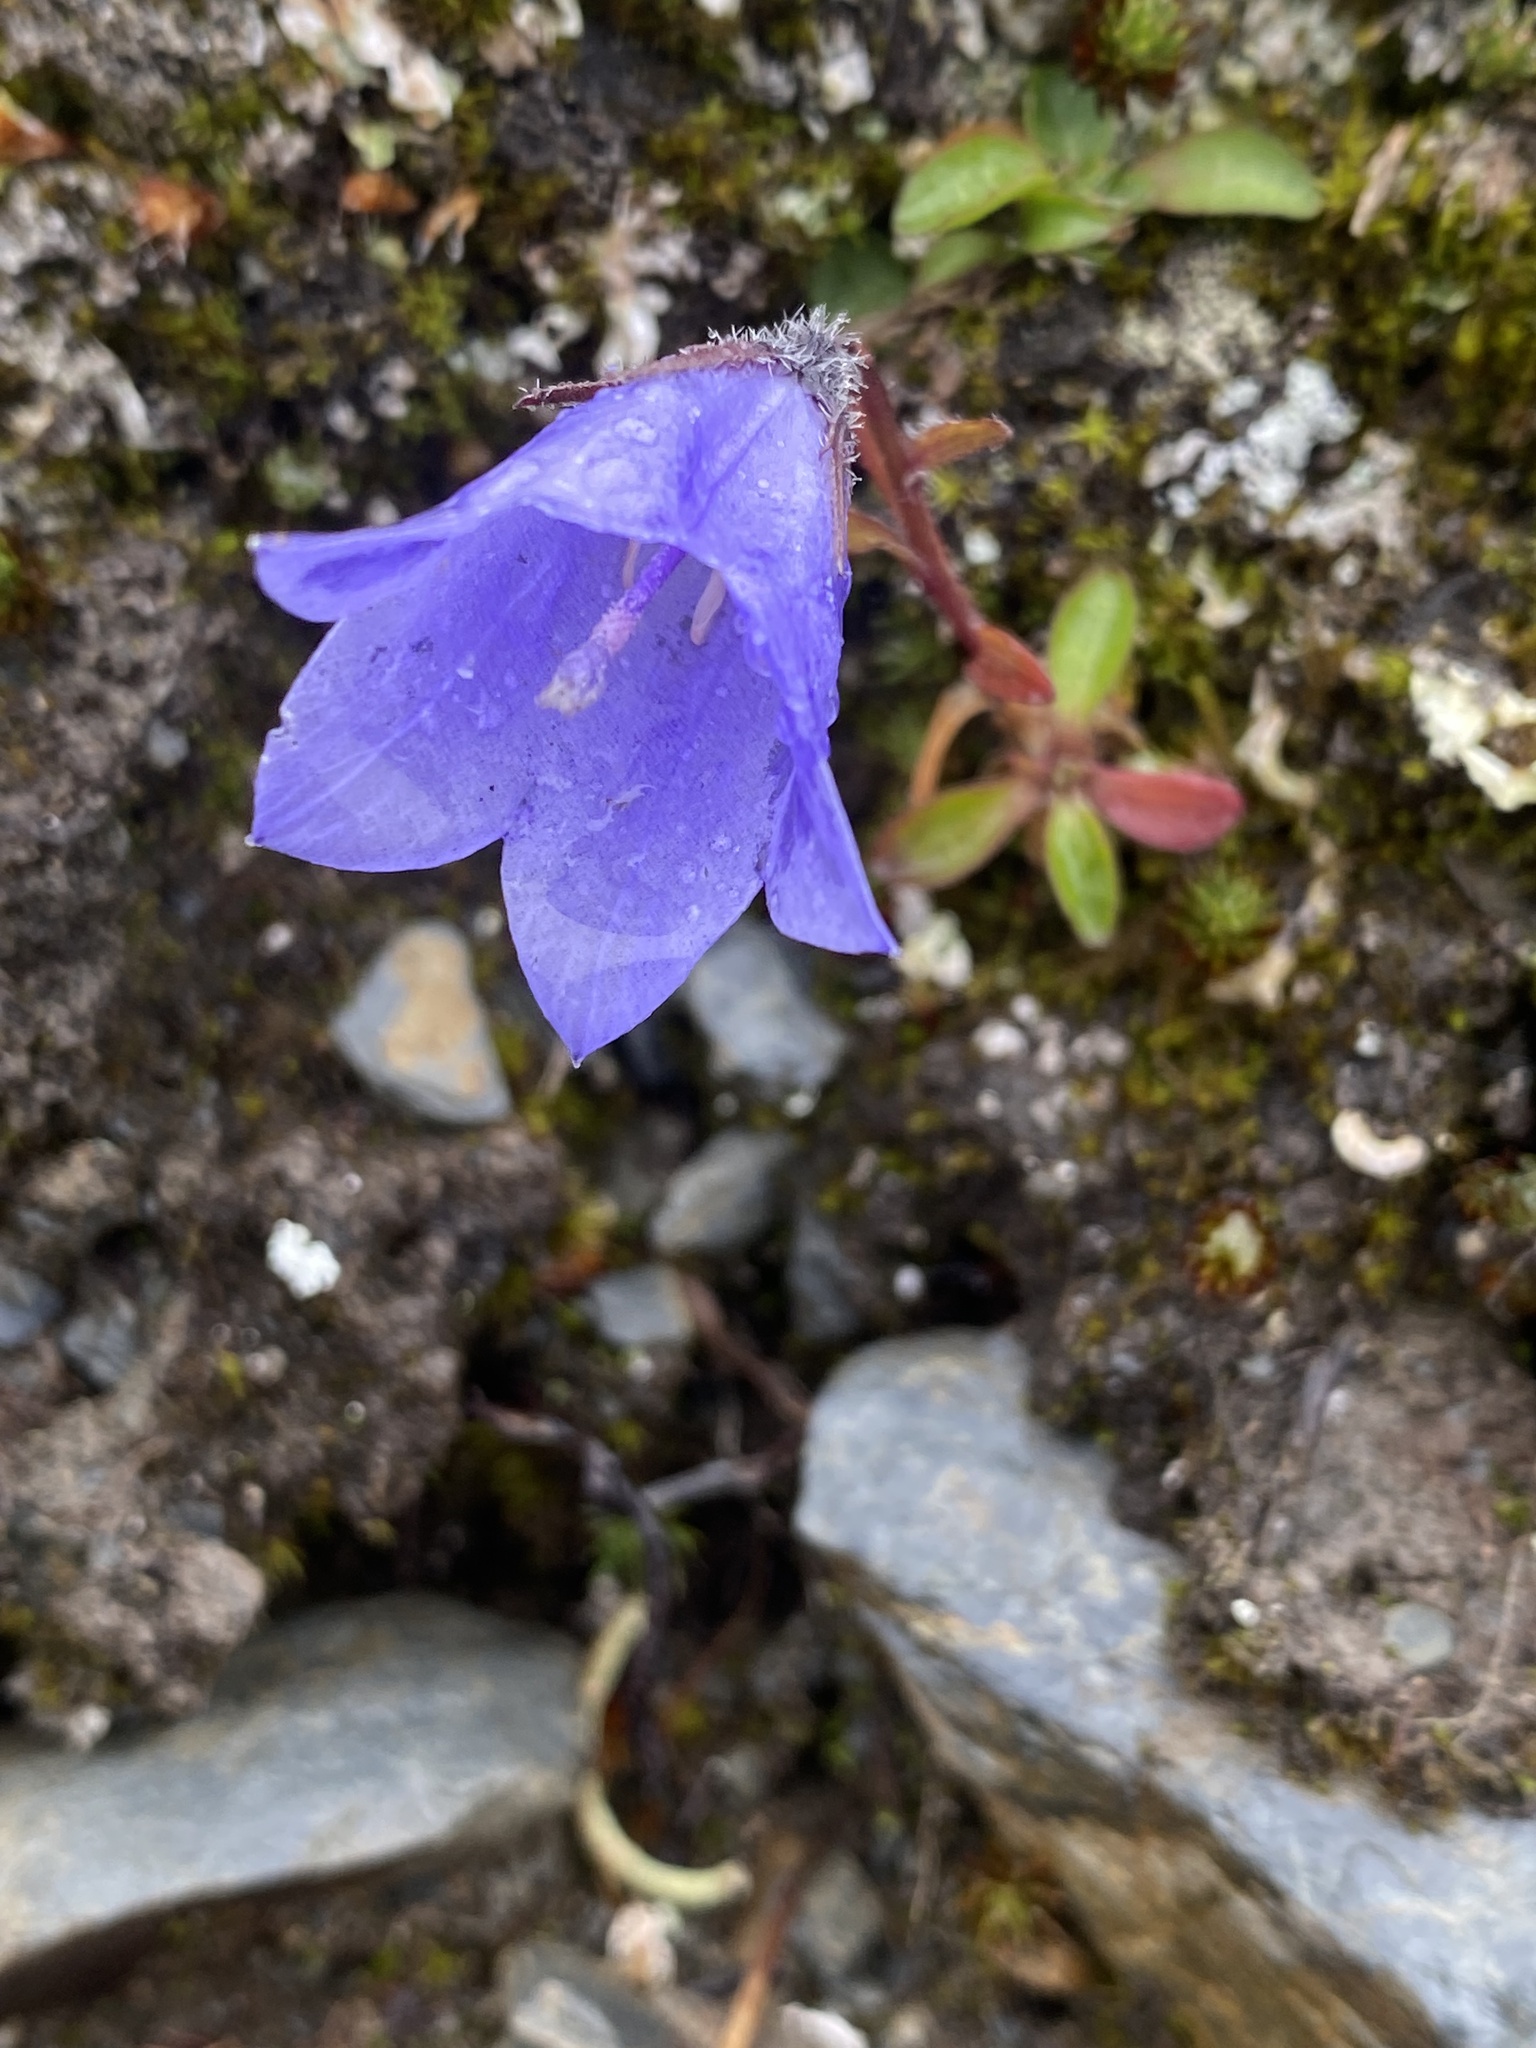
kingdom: Plantae
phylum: Tracheophyta
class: Magnoliopsida
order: Asterales
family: Campanulaceae
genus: Campanula
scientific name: Campanula lasiocarpa
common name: Mountain harebell
